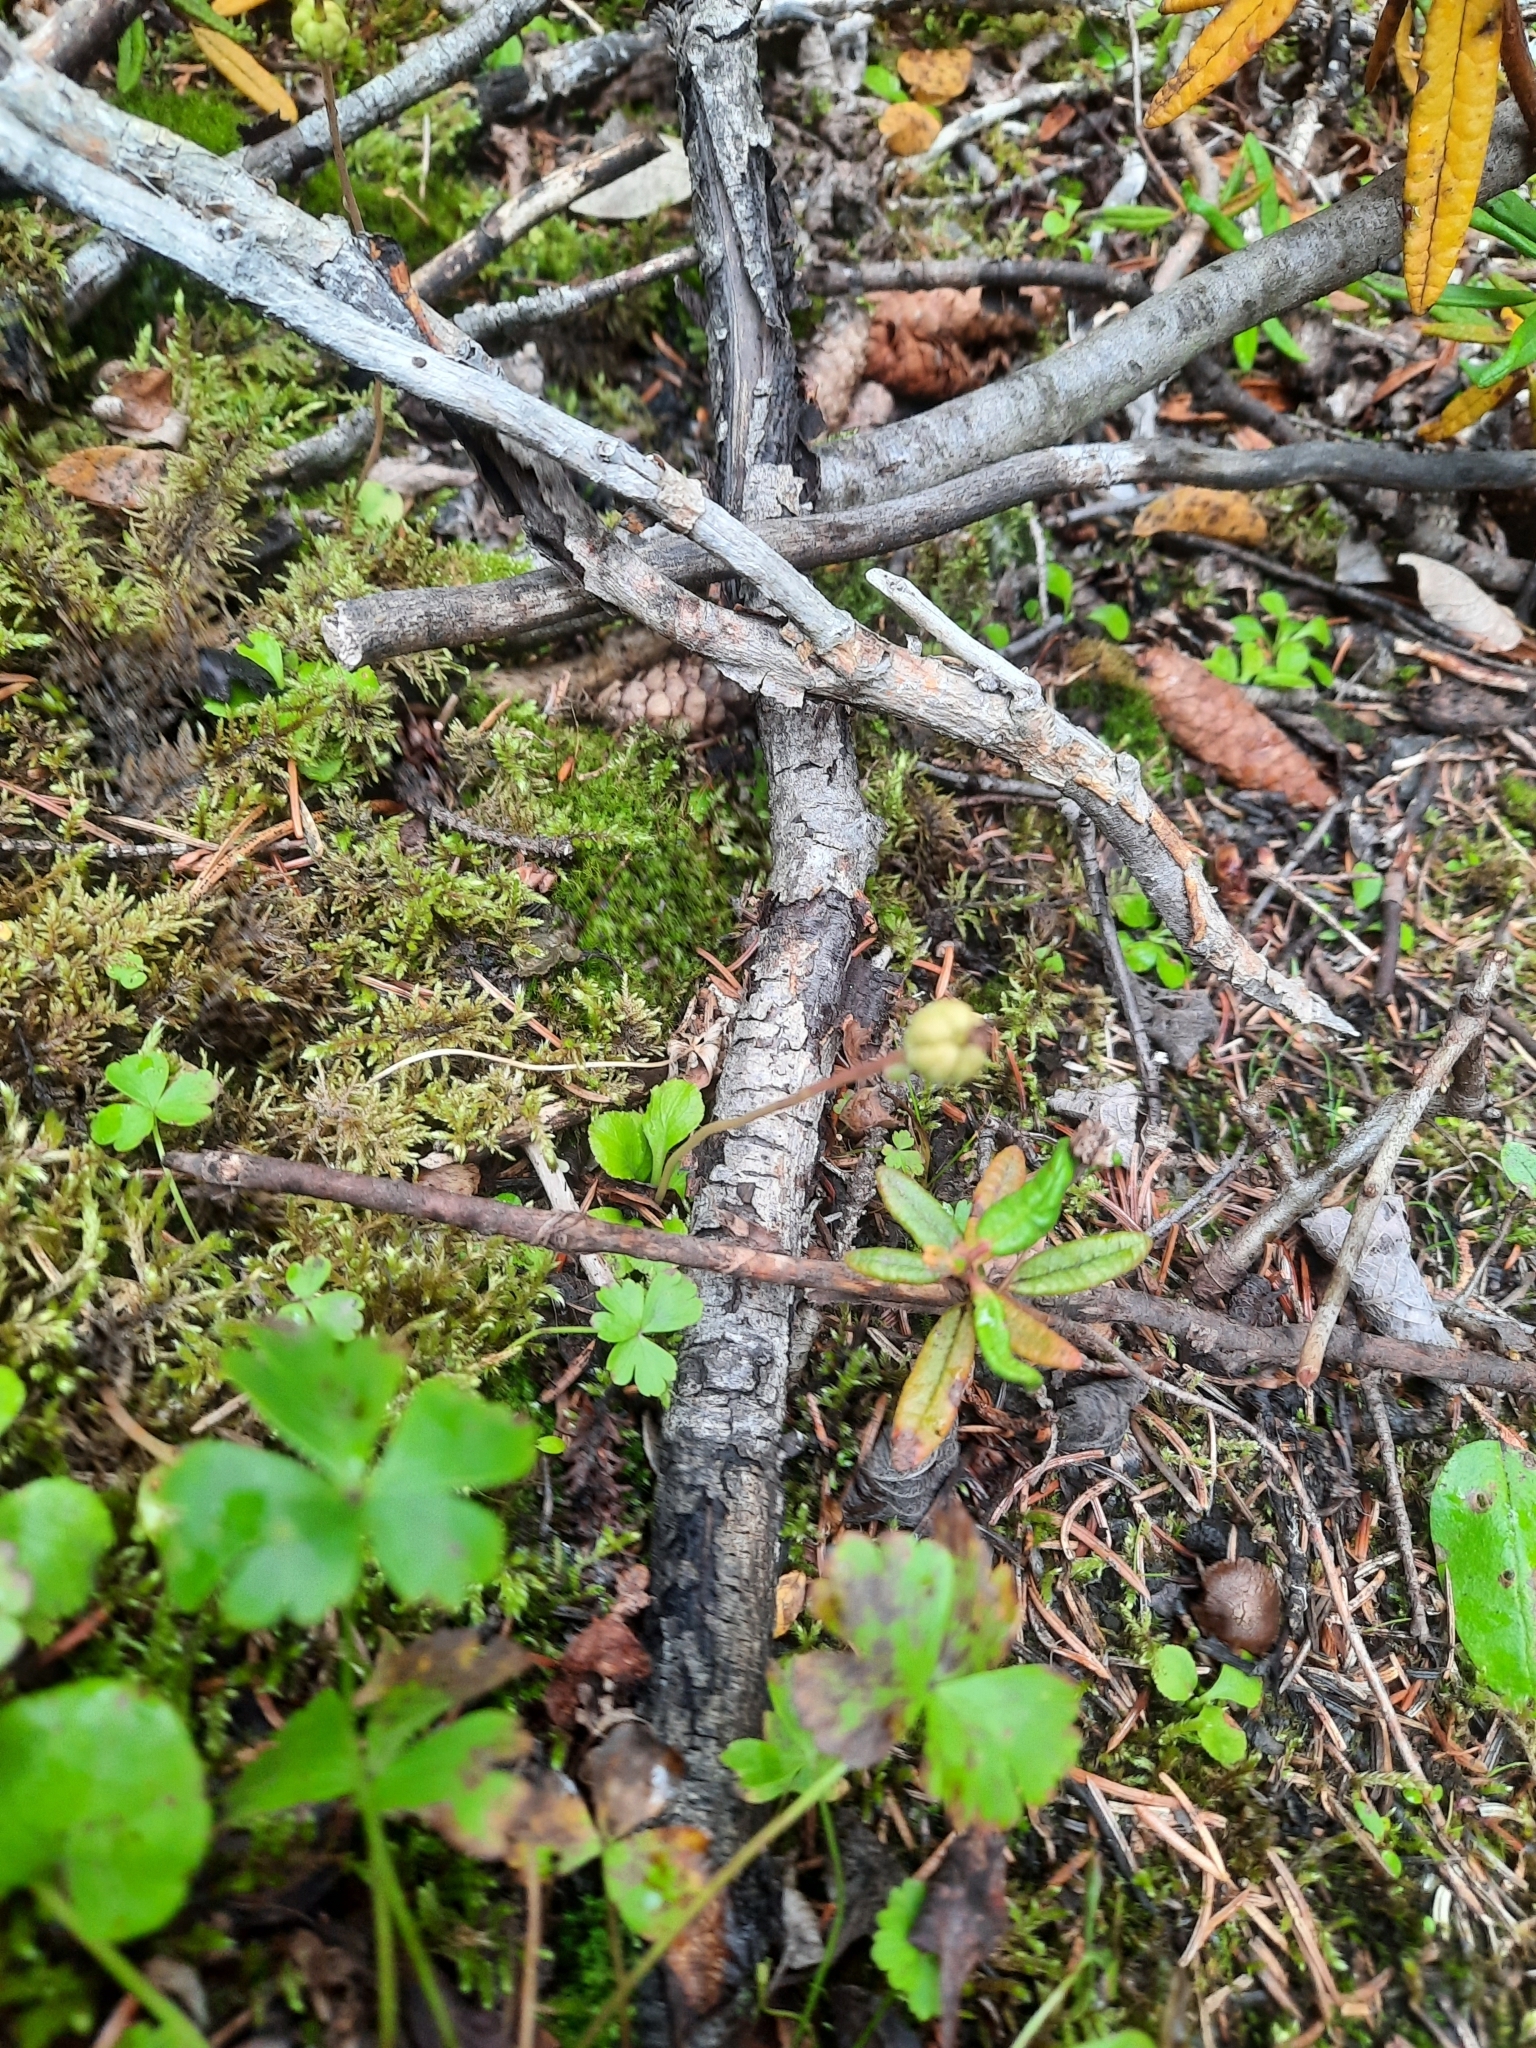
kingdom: Plantae
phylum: Tracheophyta
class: Magnoliopsida
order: Ericales
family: Ericaceae
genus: Moneses
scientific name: Moneses uniflora
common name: One-flowered wintergreen
